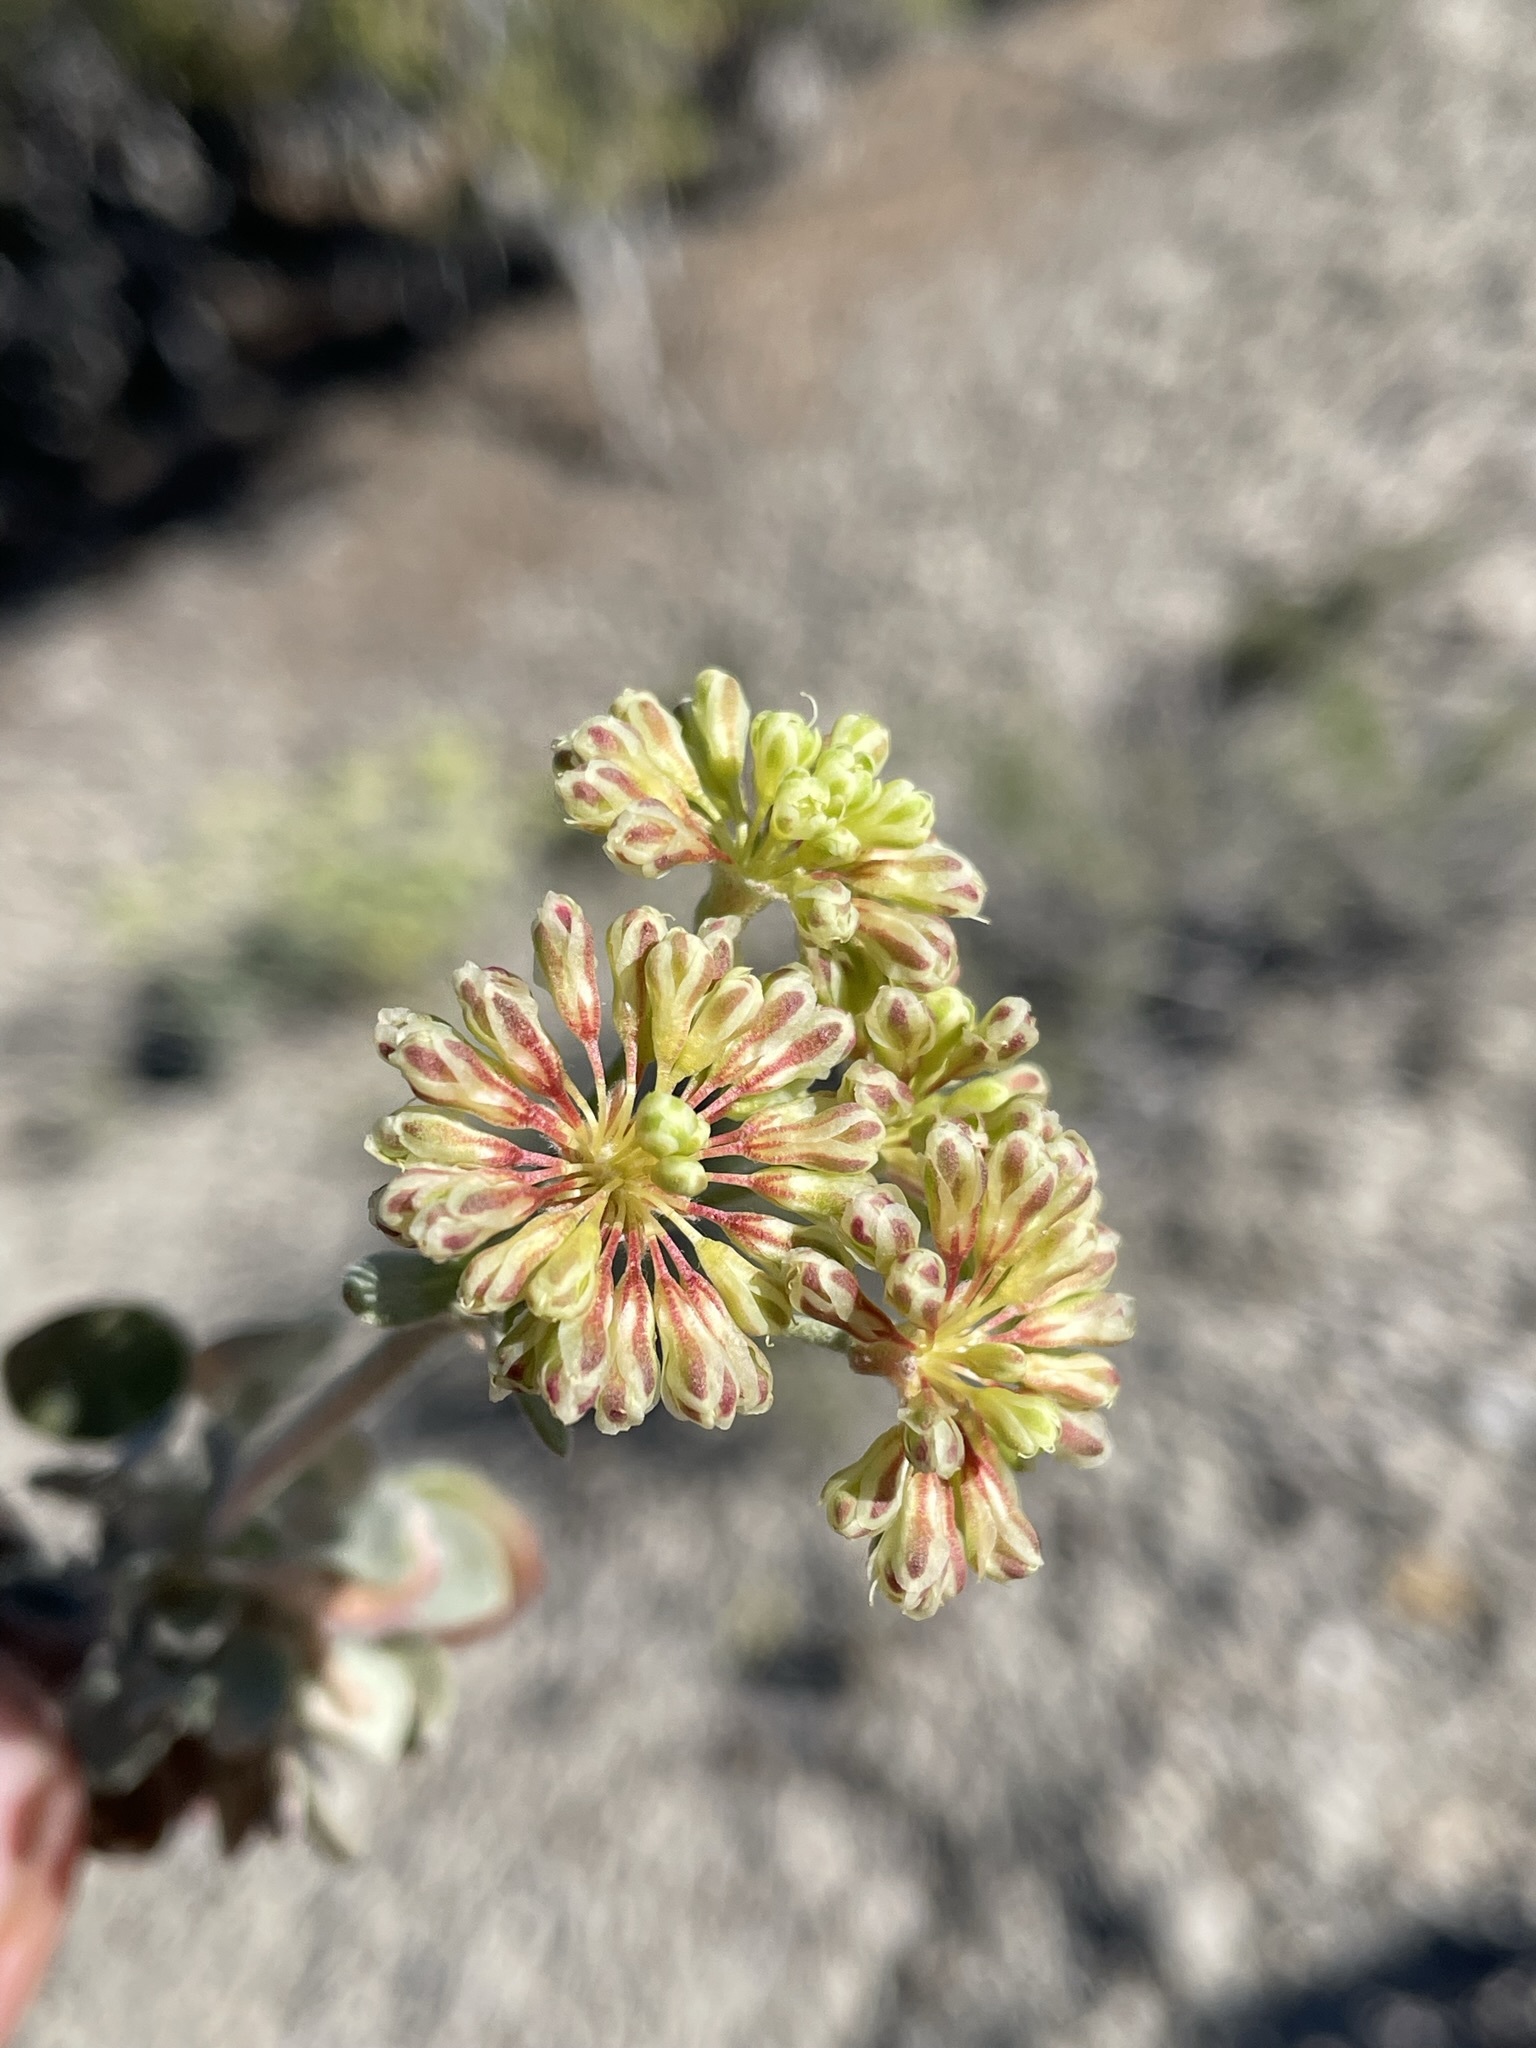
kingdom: Plantae
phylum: Tracheophyta
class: Magnoliopsida
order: Caryophyllales
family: Polygonaceae
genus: Eriogonum
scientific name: Eriogonum umbellatum
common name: Sulfur-buckwheat
